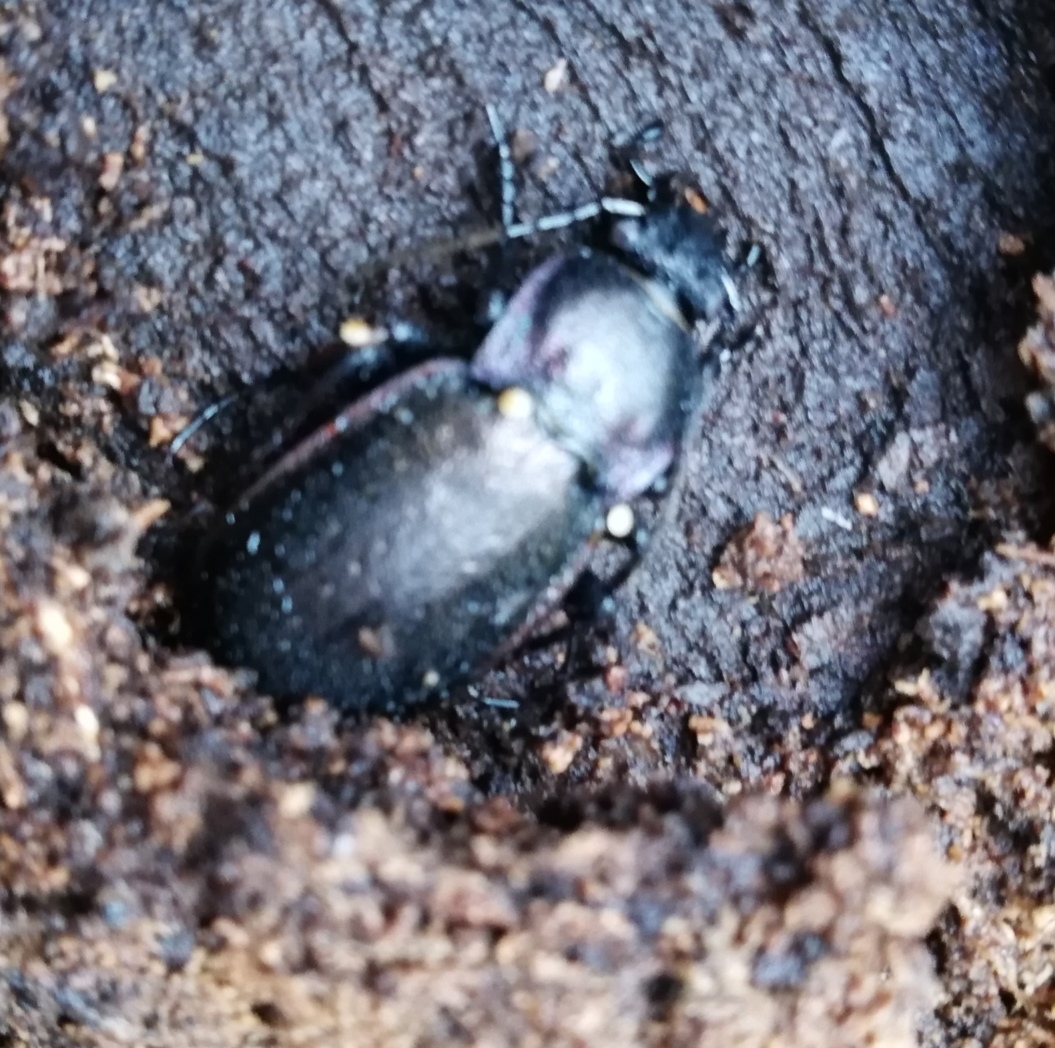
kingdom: Animalia
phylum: Arthropoda
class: Insecta
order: Coleoptera
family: Carabidae
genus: Carabus
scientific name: Carabus nemoralis
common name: European ground beetle
